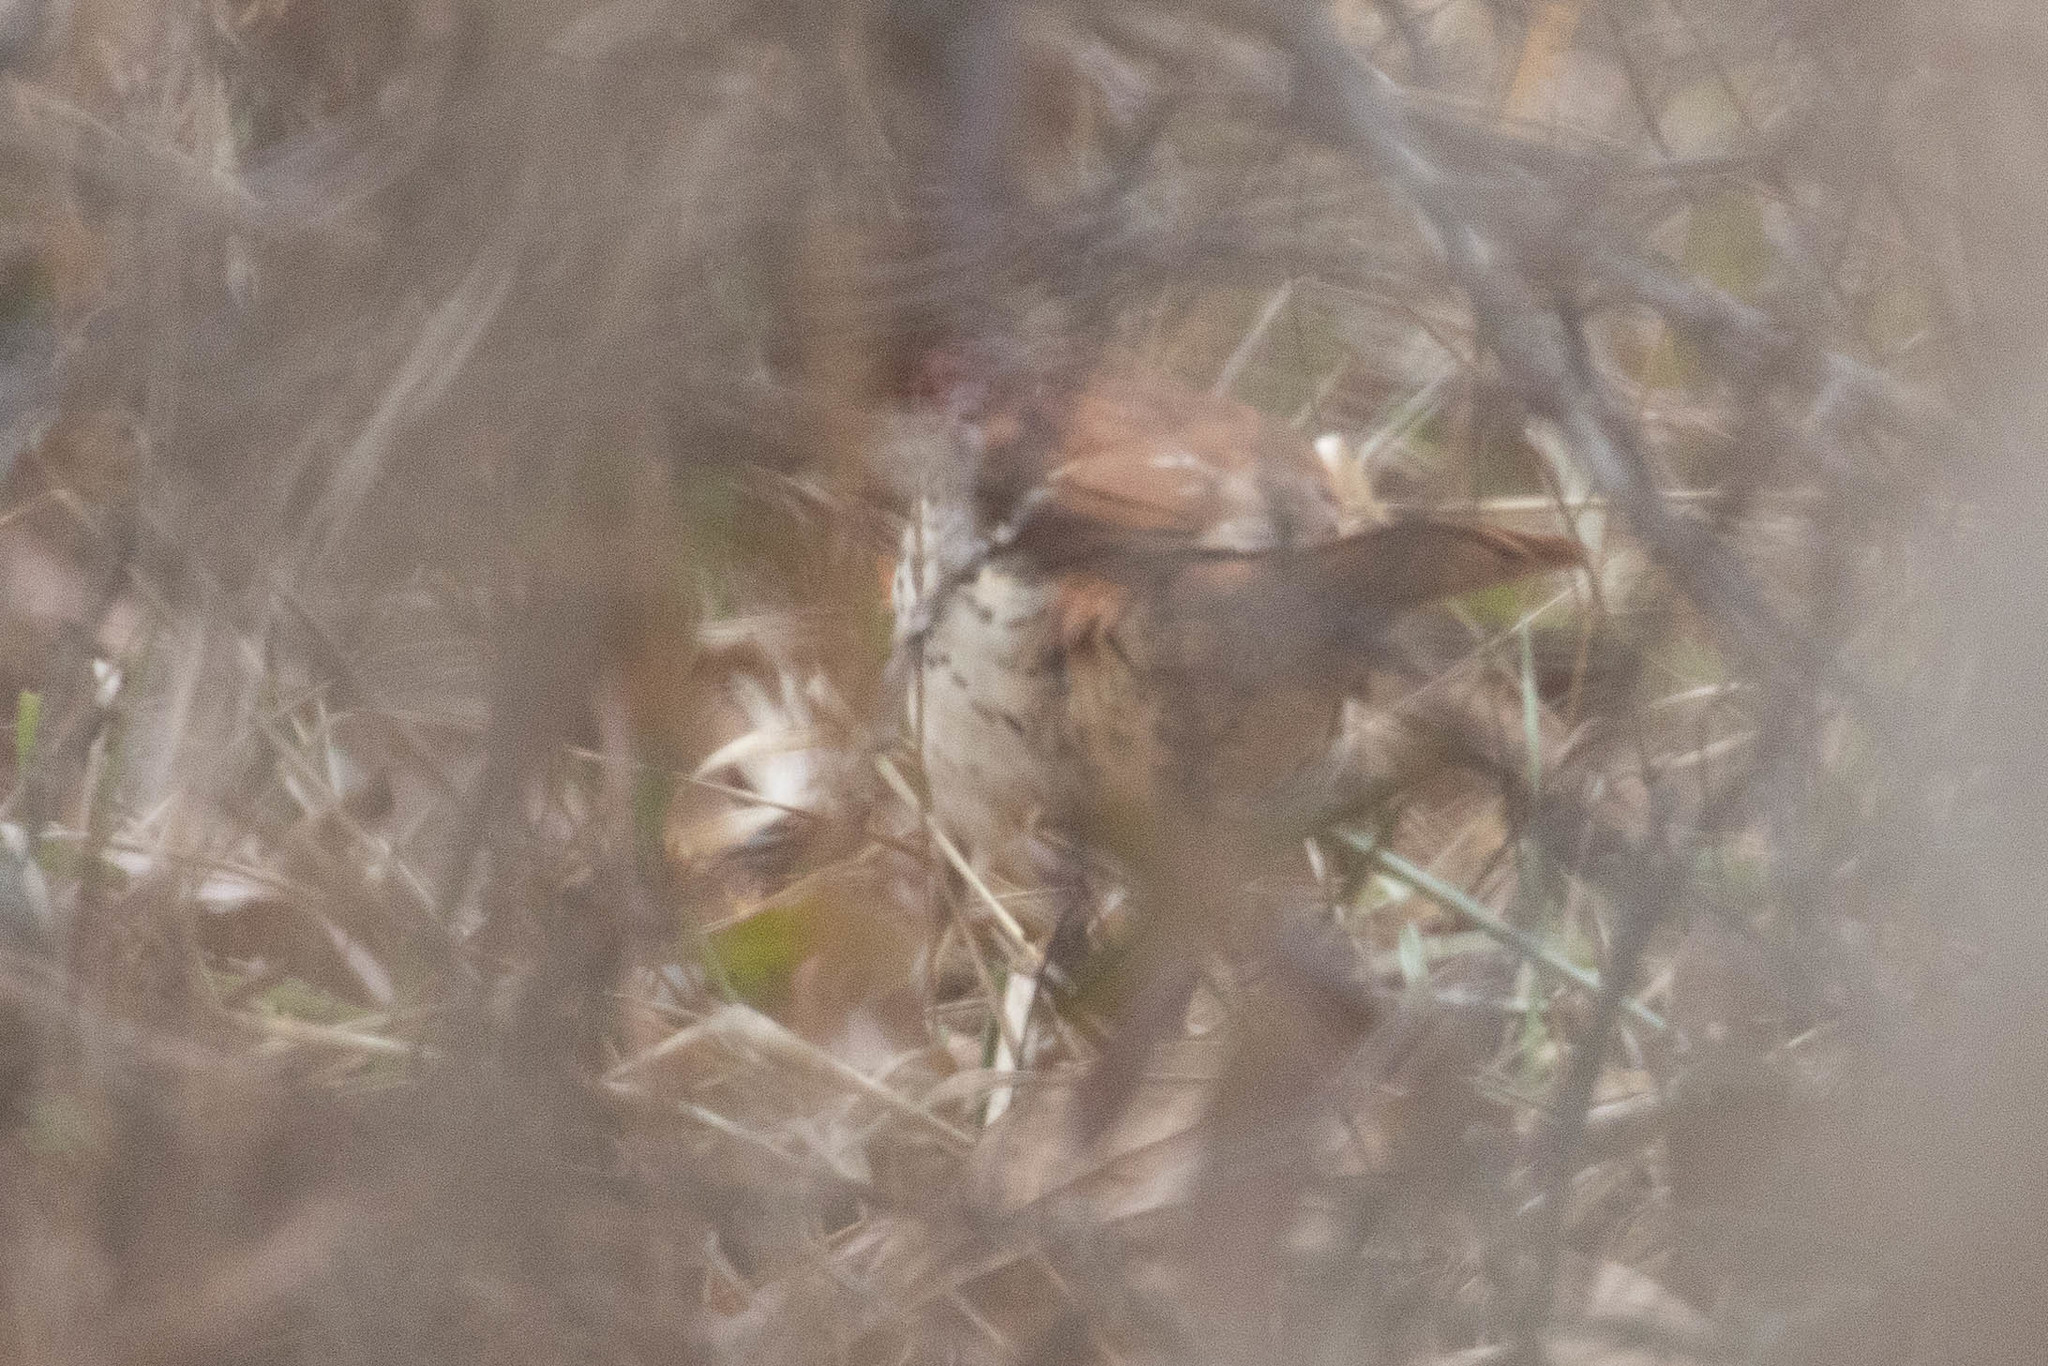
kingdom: Animalia
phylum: Chordata
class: Aves
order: Passeriformes
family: Mimidae
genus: Toxostoma
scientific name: Toxostoma rufum
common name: Brown thrasher
